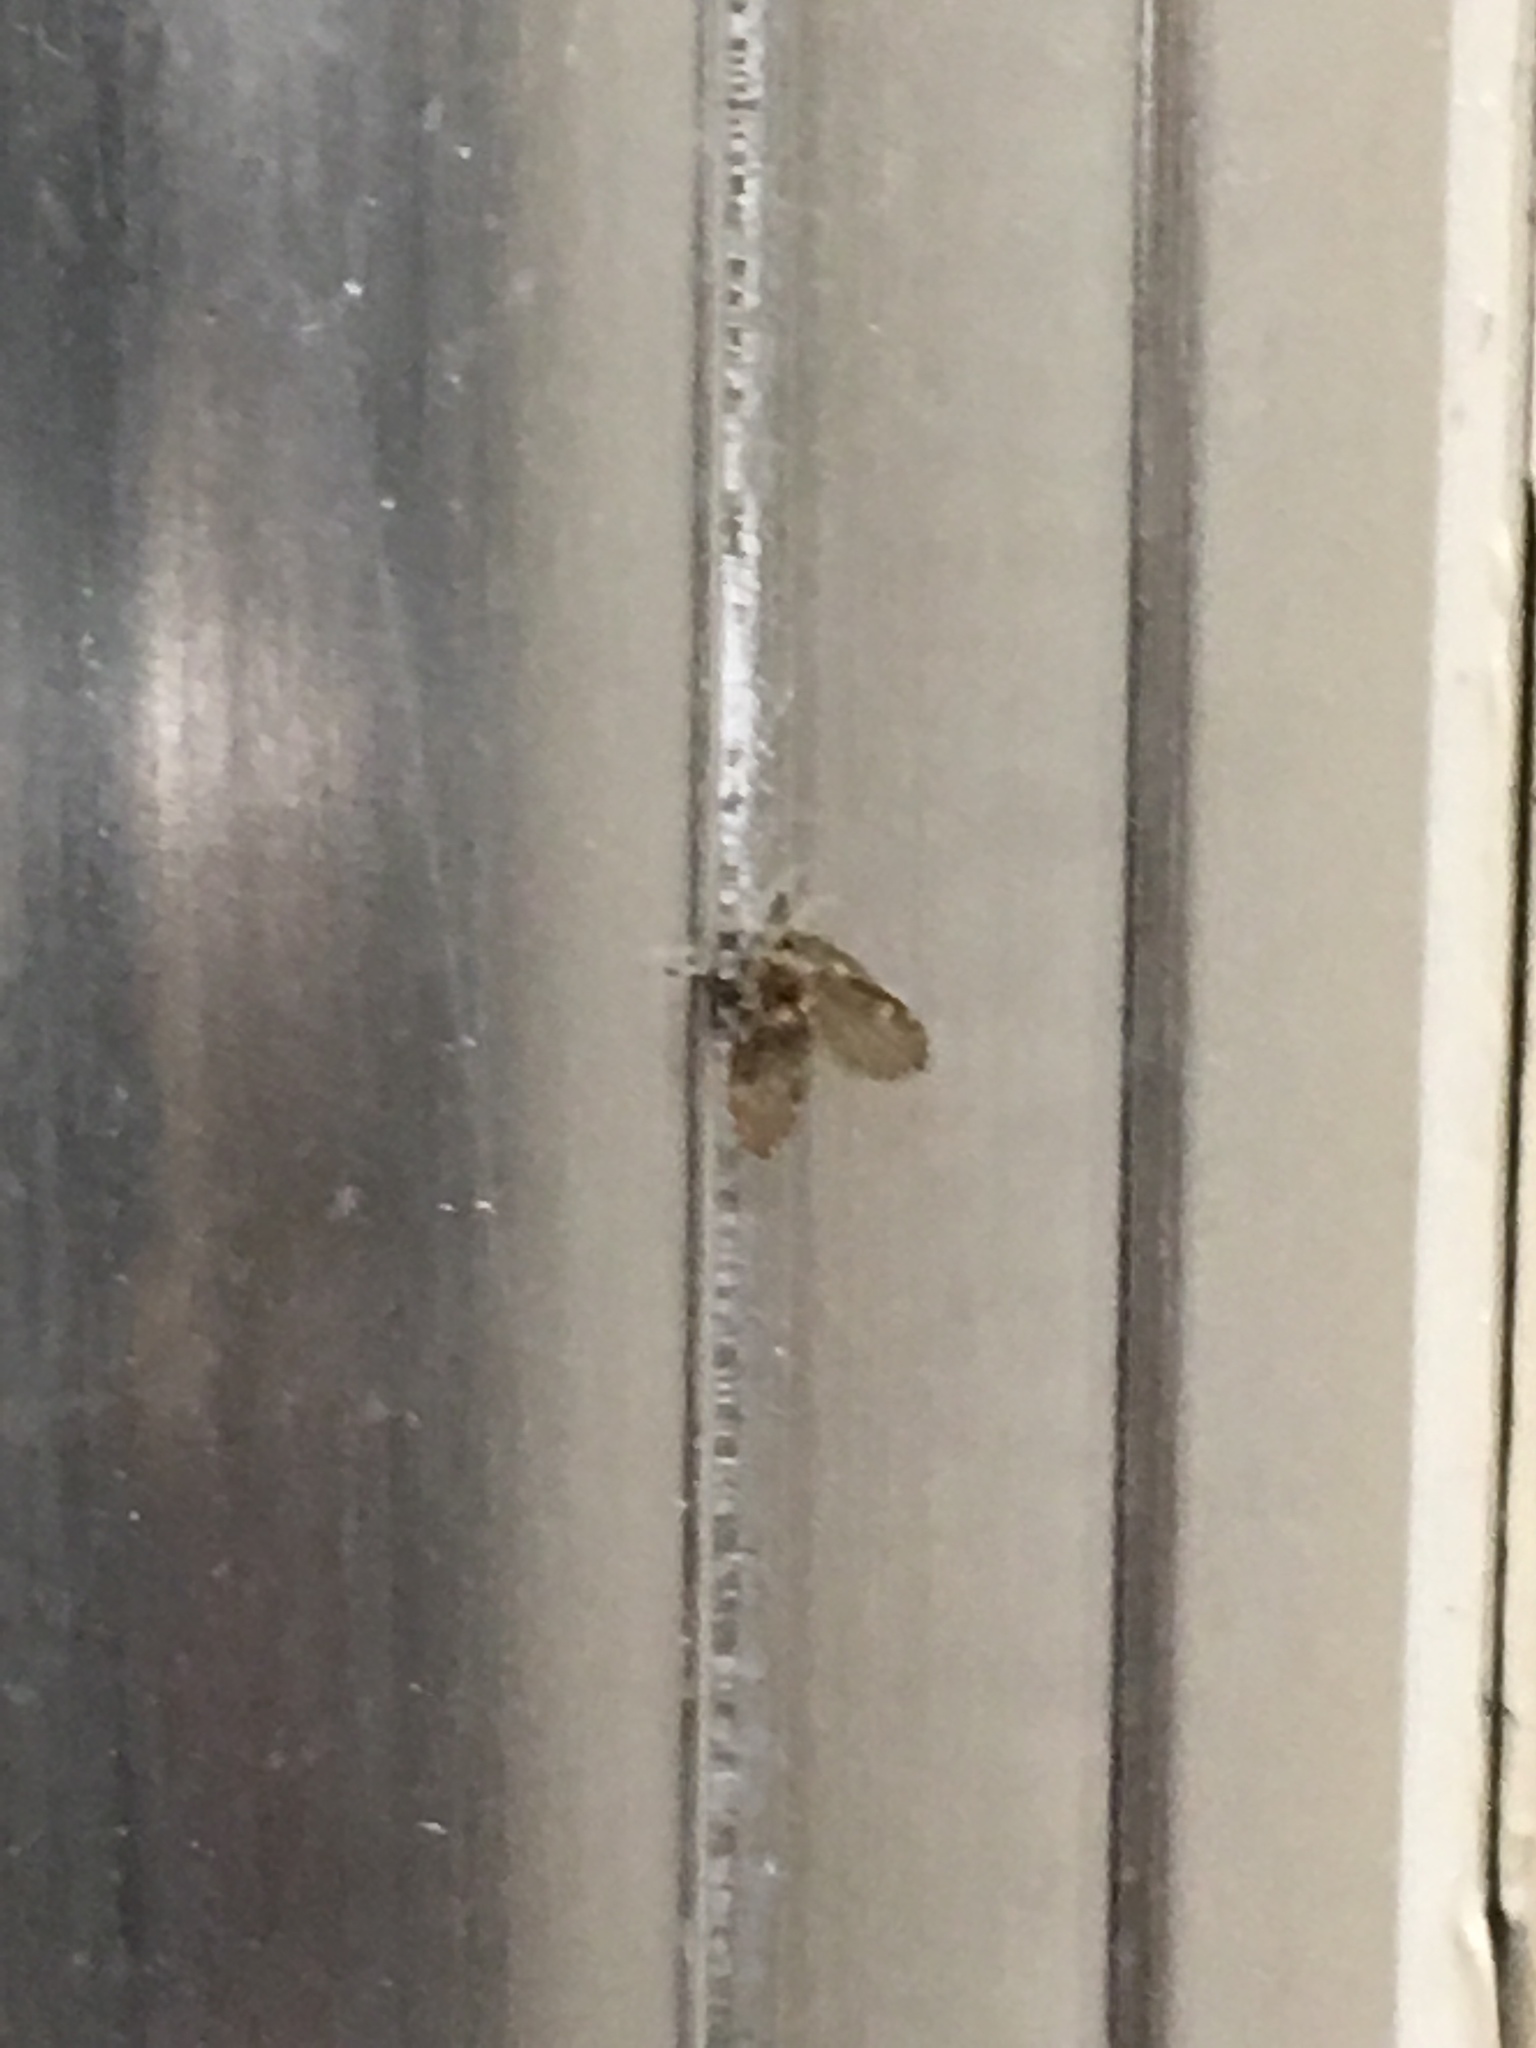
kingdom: Animalia
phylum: Arthropoda
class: Insecta
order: Diptera
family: Psychodidae
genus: Clogmia
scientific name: Clogmia albipunctatus
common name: White-spotted moth fly
